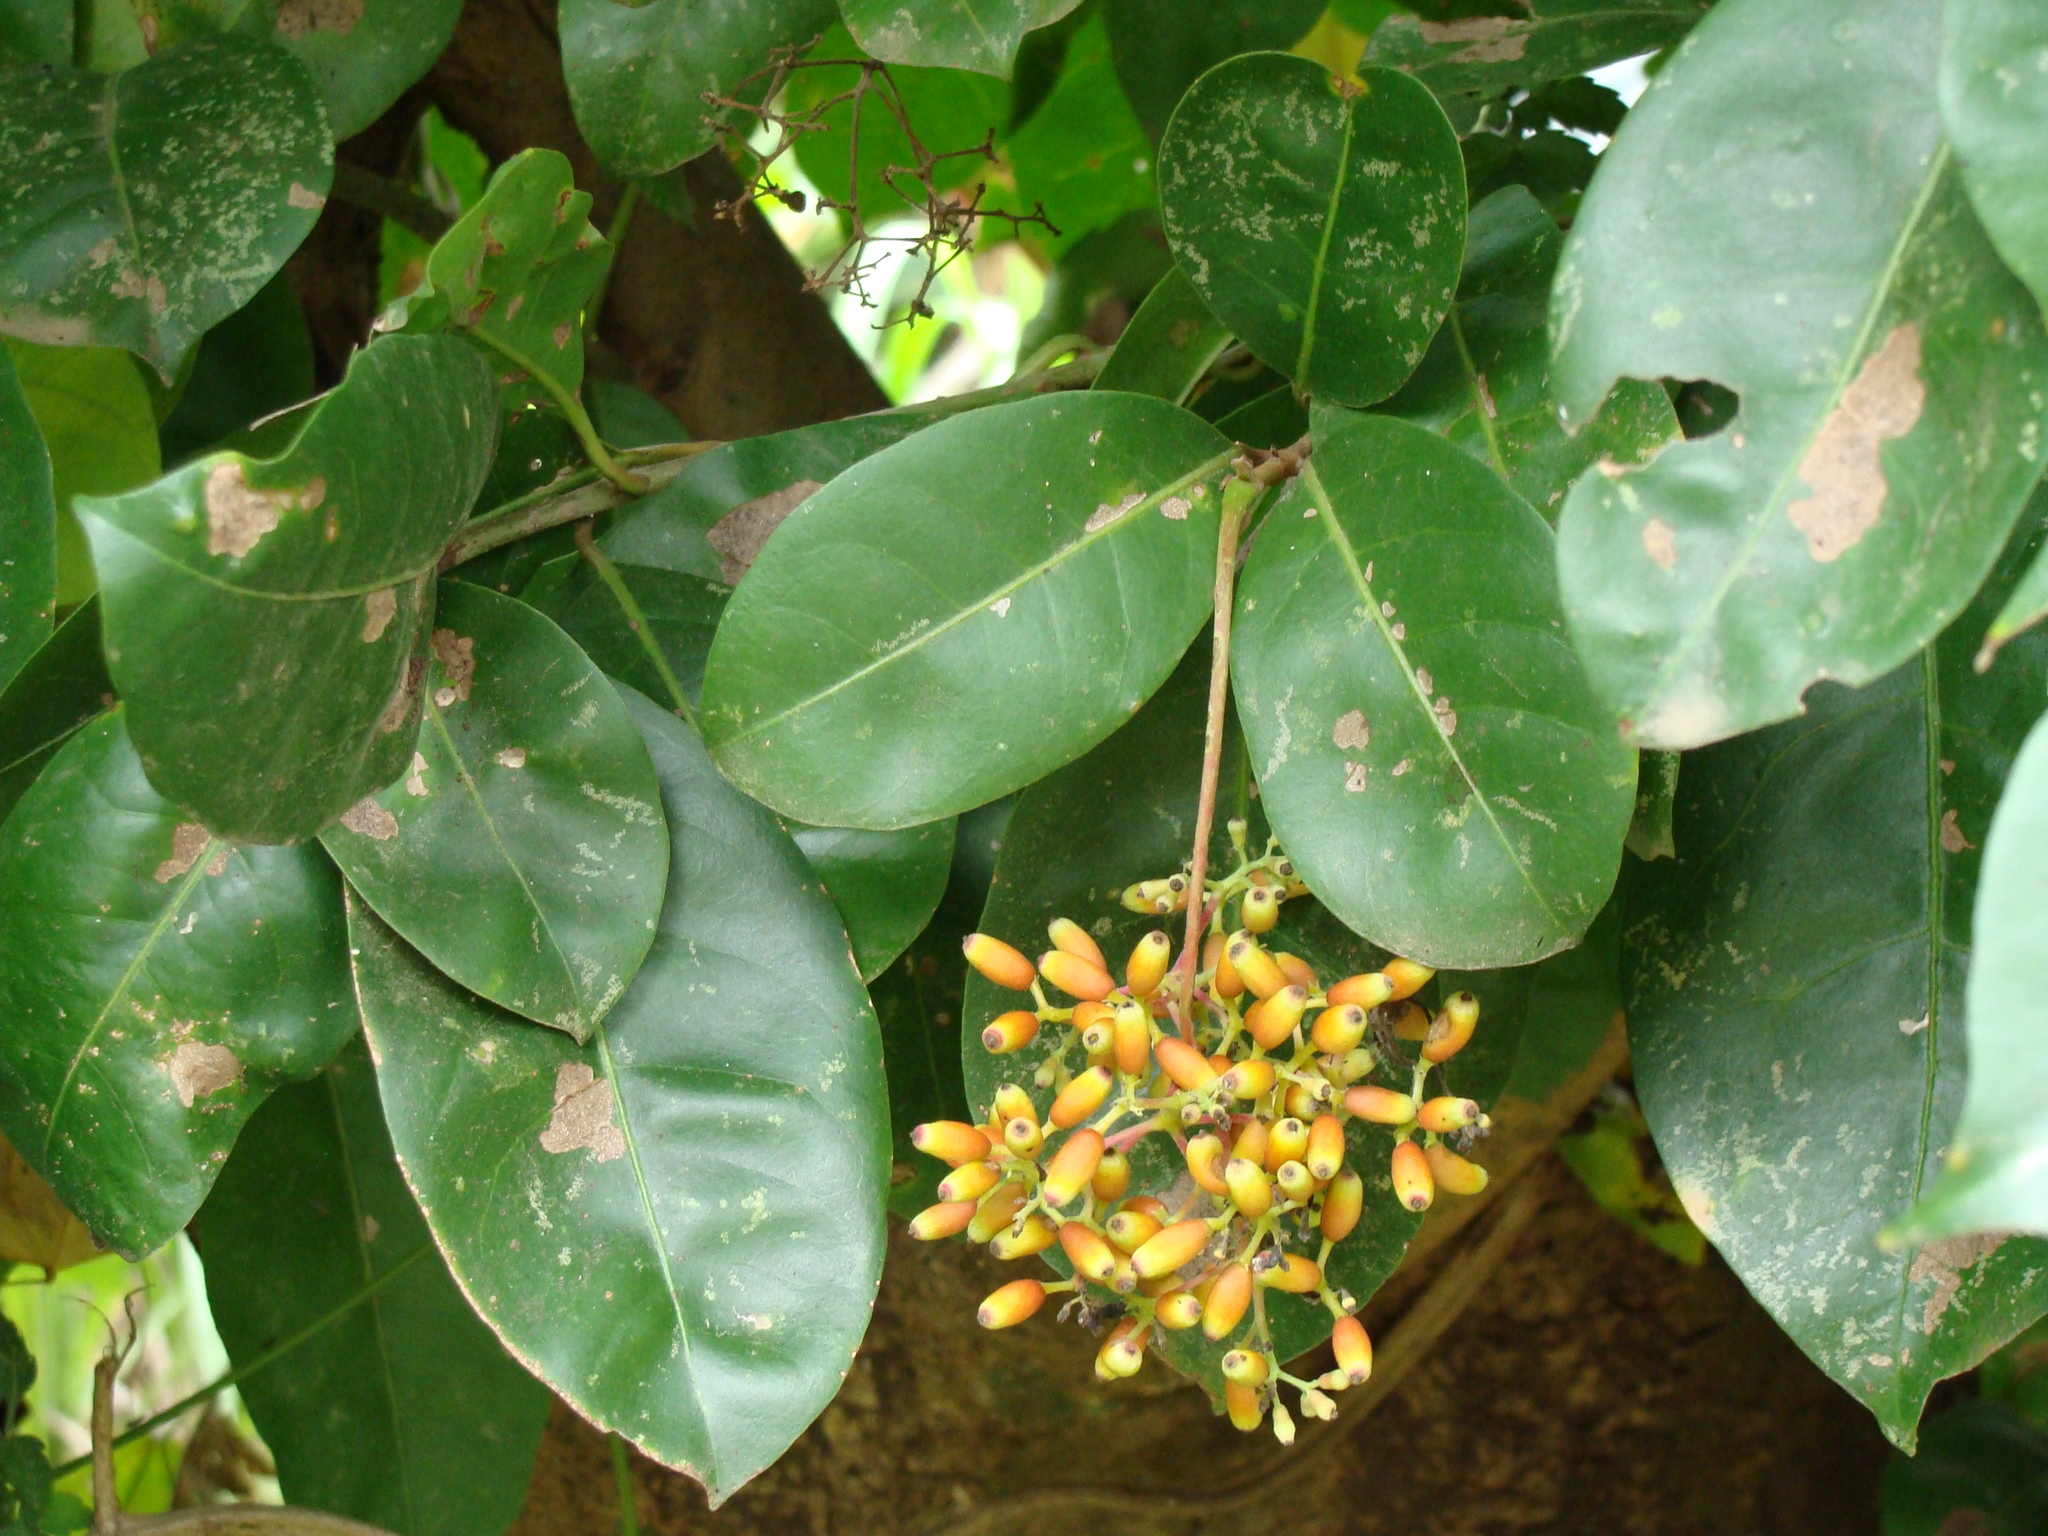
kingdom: Plantae
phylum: Tracheophyta
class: Magnoliopsida
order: Caryophyllales
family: Nyctaginaceae
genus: Neea
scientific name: Neea turbinata
